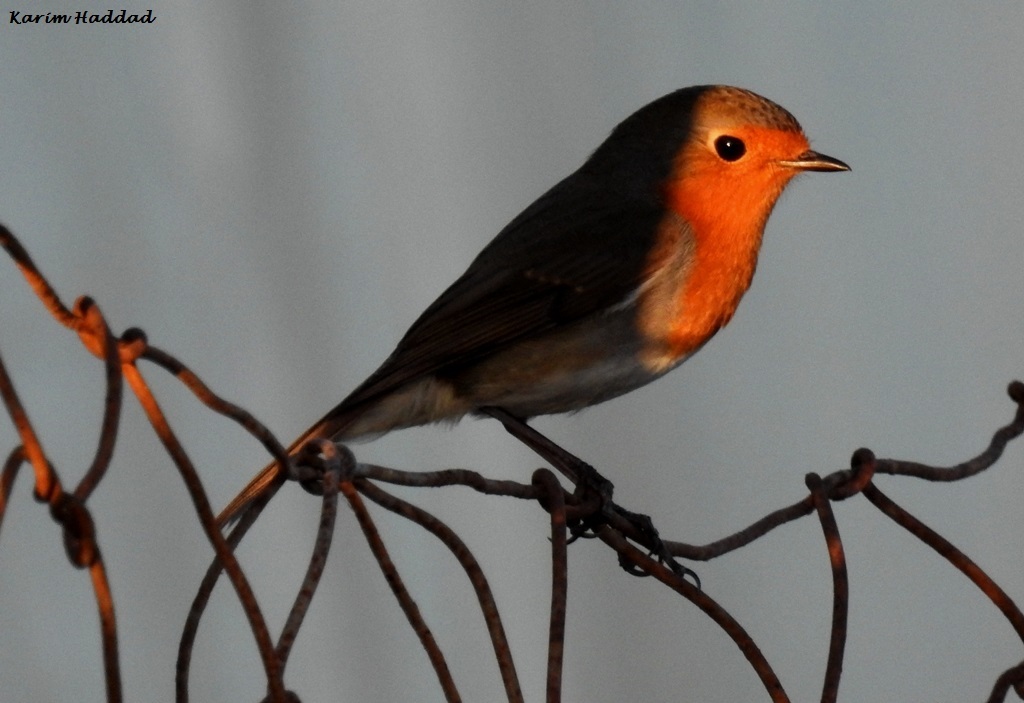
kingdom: Animalia
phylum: Chordata
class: Aves
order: Passeriformes
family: Muscicapidae
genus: Erithacus
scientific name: Erithacus rubecula
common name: European robin
